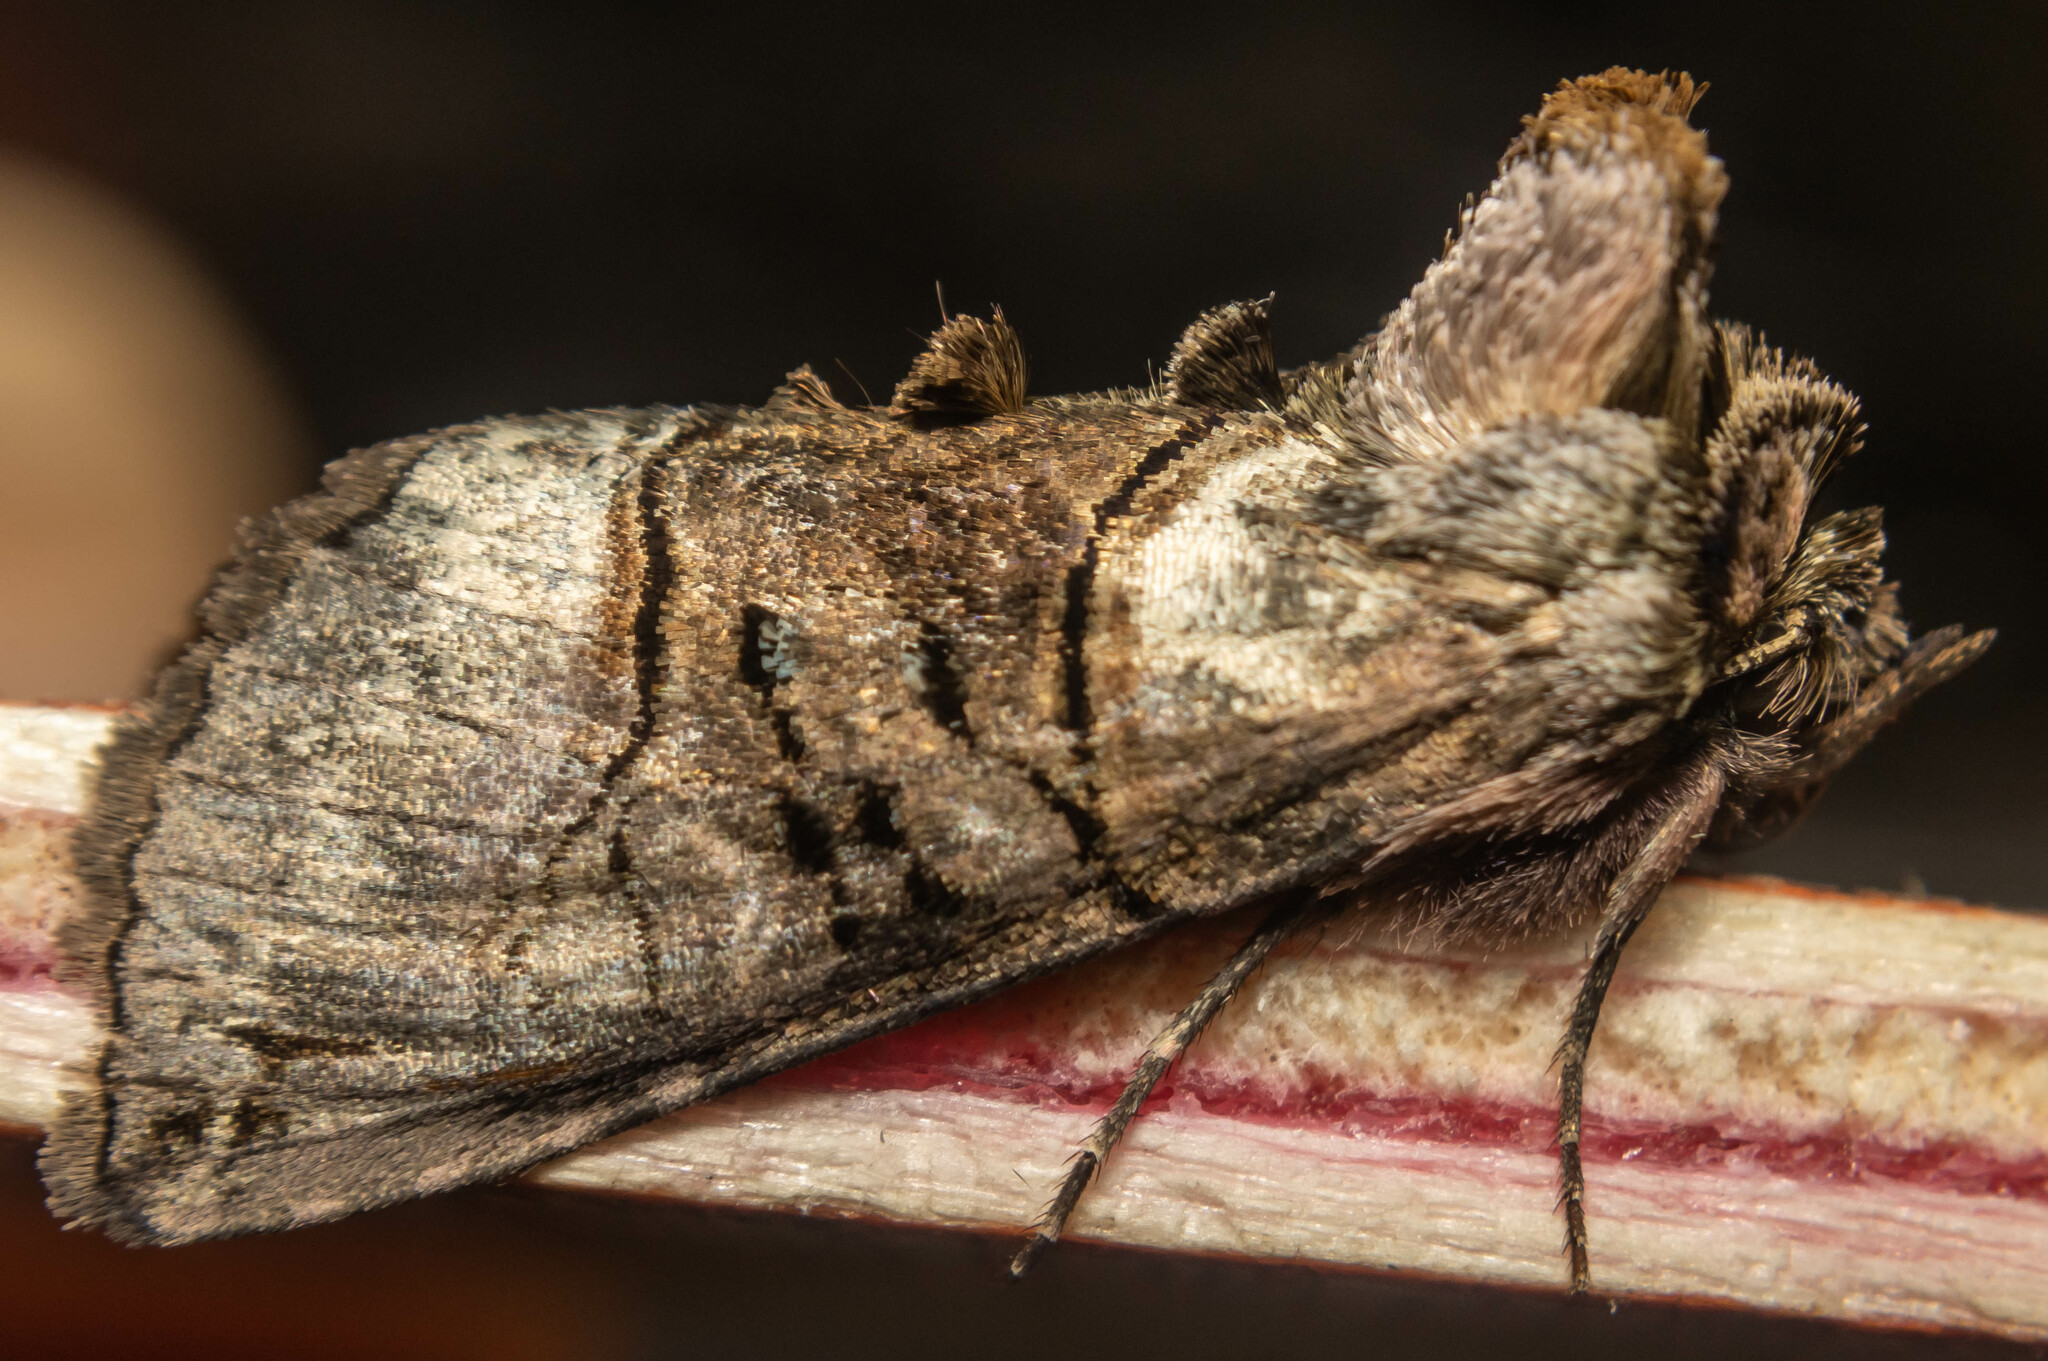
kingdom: Animalia
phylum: Arthropoda
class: Insecta
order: Lepidoptera
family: Noctuidae
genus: Abrostola
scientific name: Abrostola tripartita
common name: Spectacle
